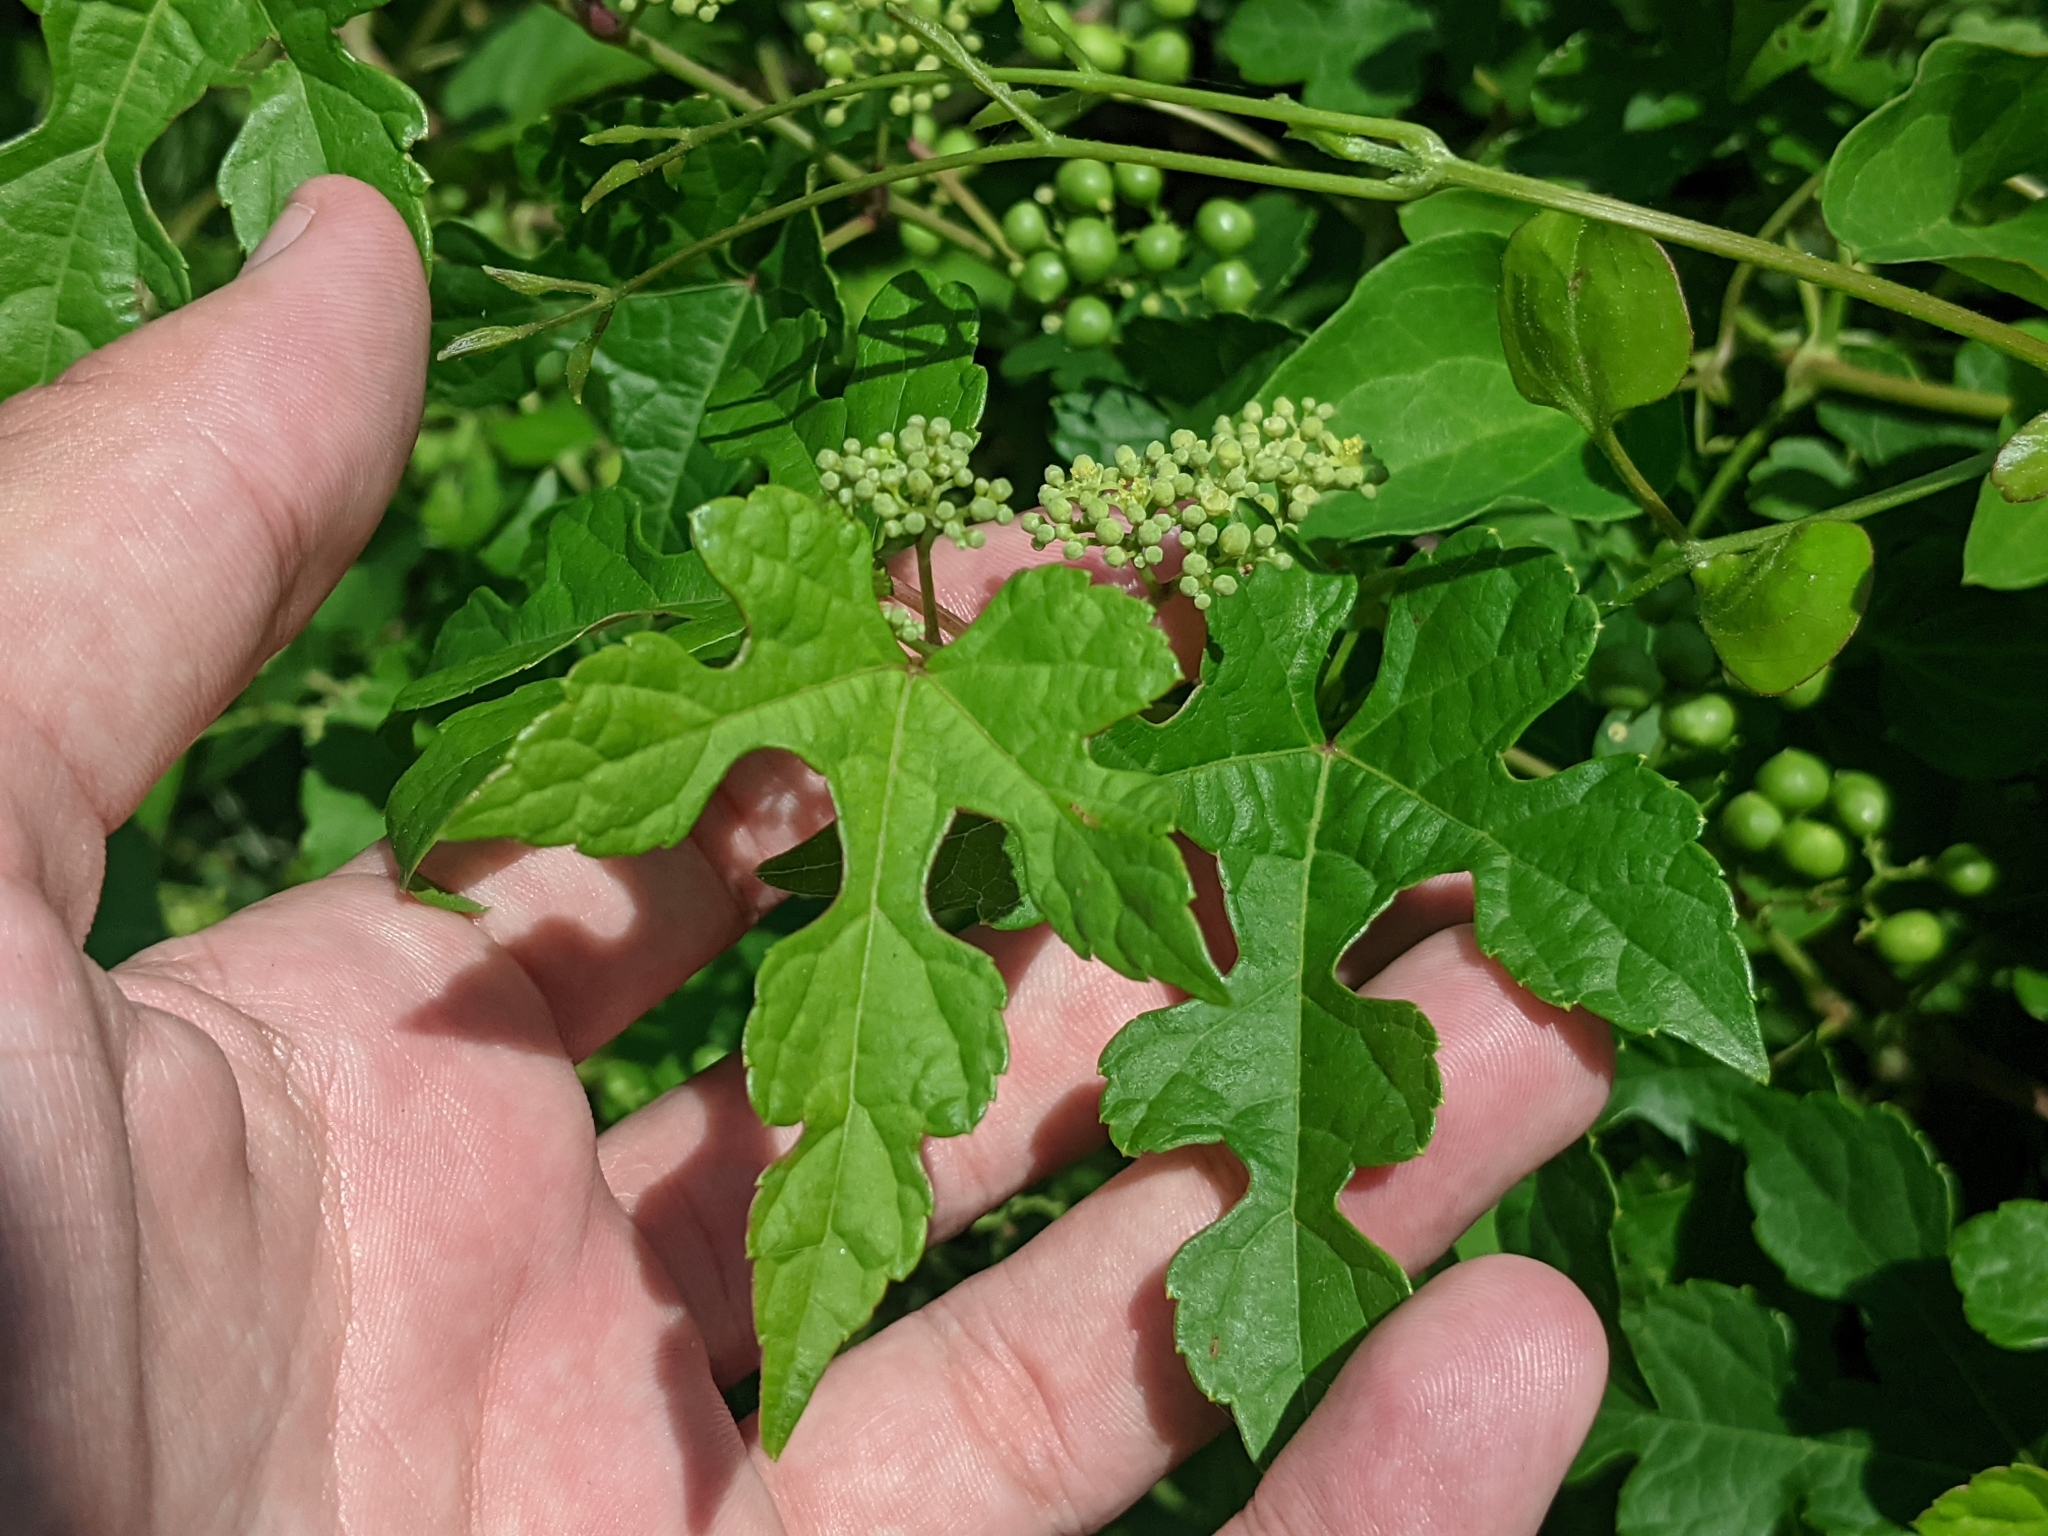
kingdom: Plantae
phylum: Tracheophyta
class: Magnoliopsida
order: Vitales
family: Vitaceae
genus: Ampelopsis
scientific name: Ampelopsis glandulosa
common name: Amur peppervine
